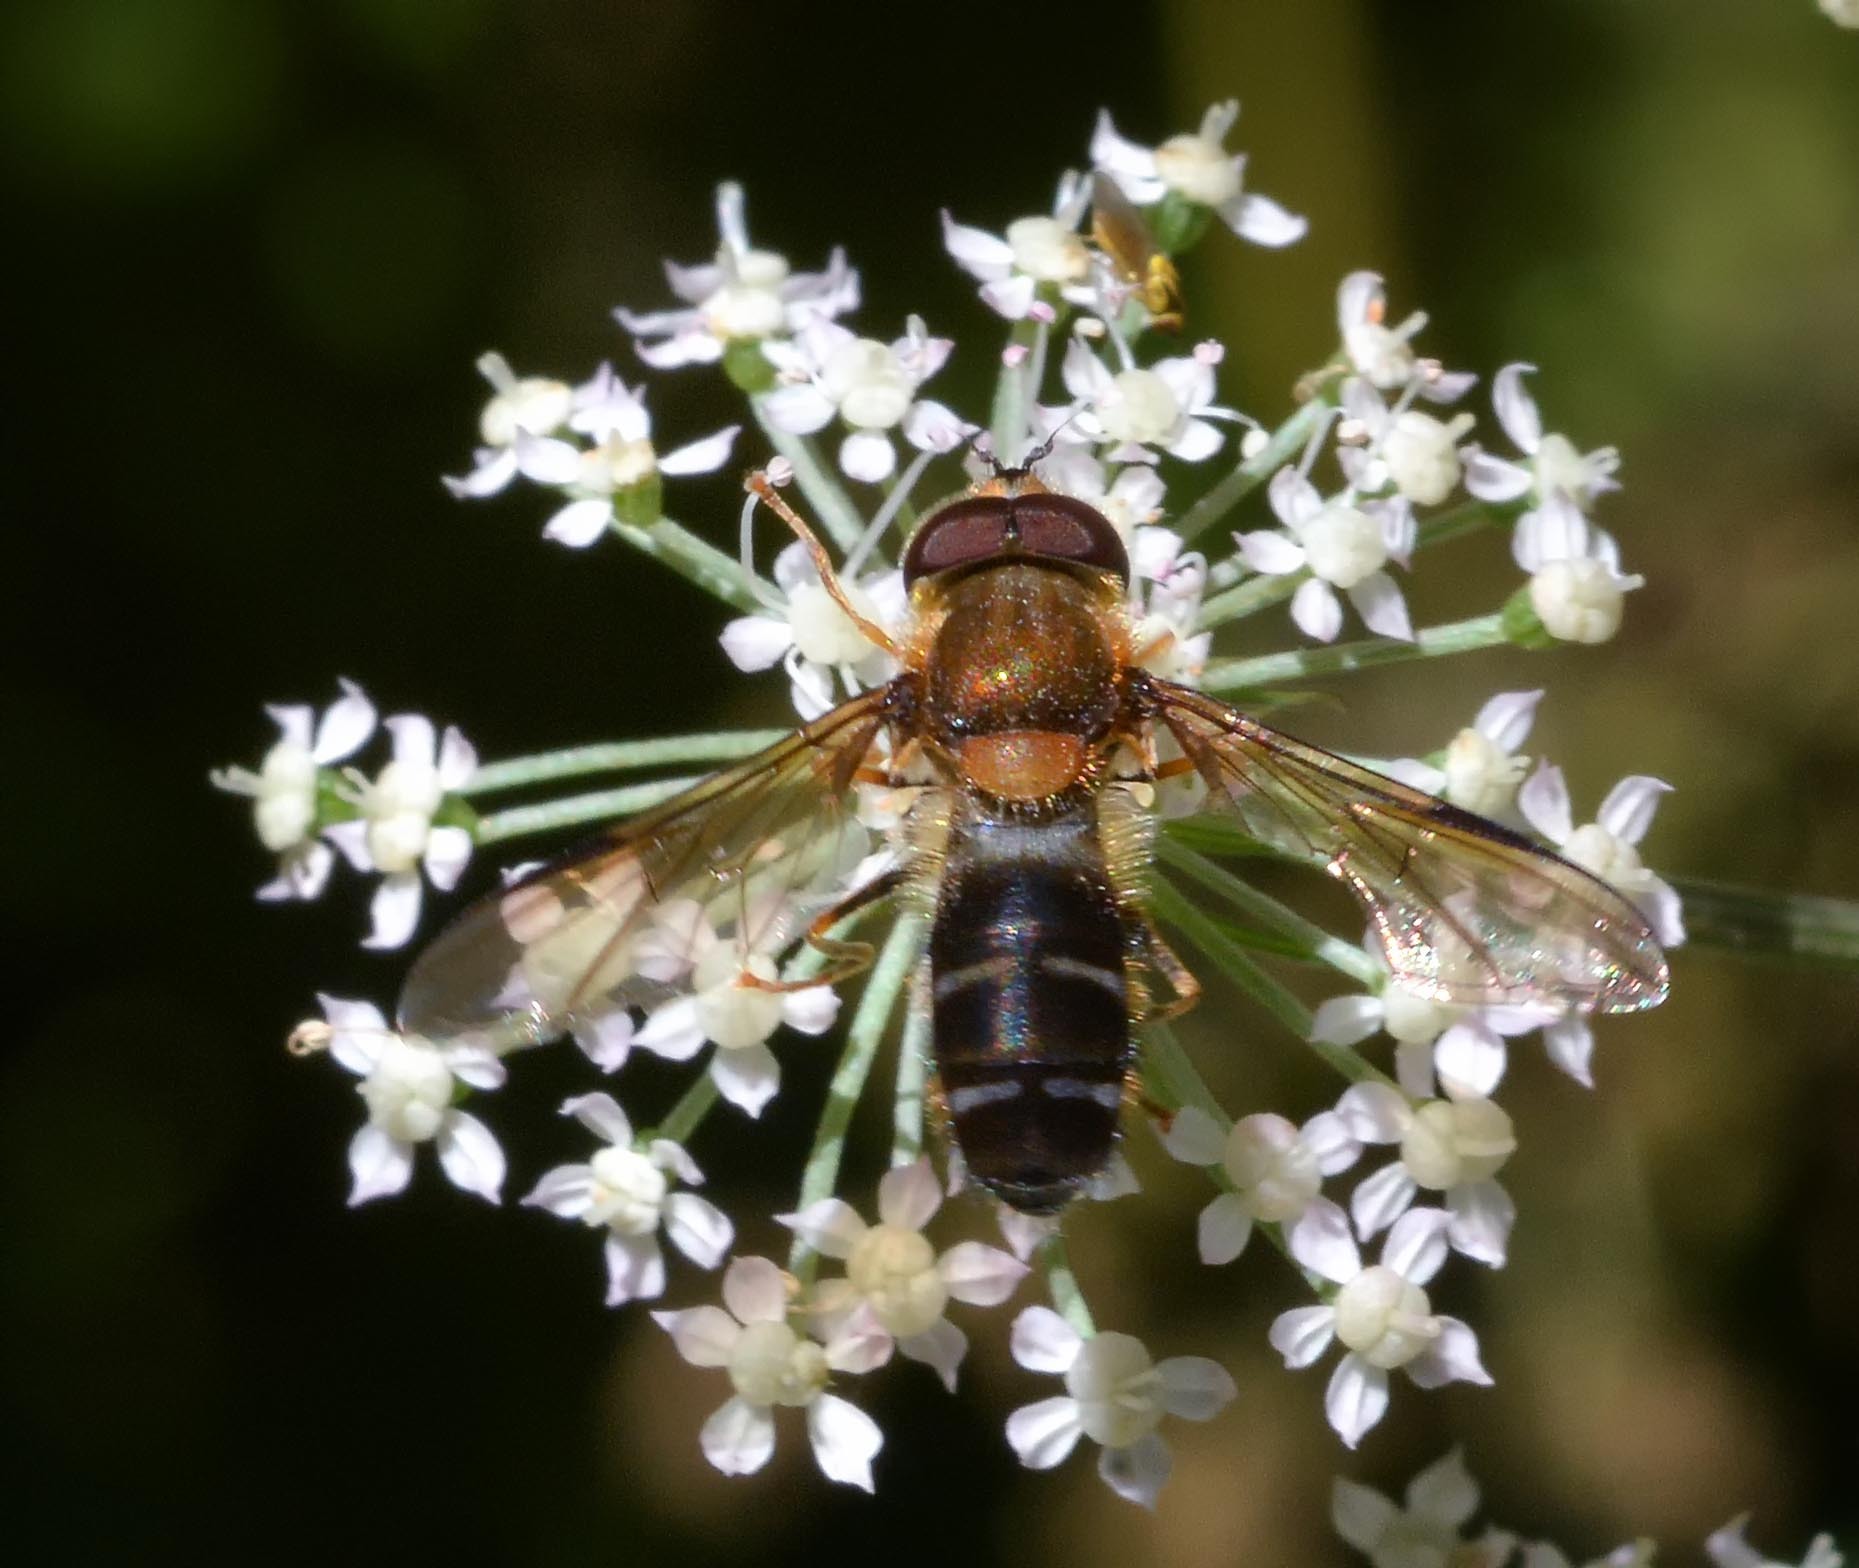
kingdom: Animalia
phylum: Arthropoda
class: Insecta
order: Diptera
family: Syrphidae
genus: Leucozona
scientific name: Leucozona glaucia
